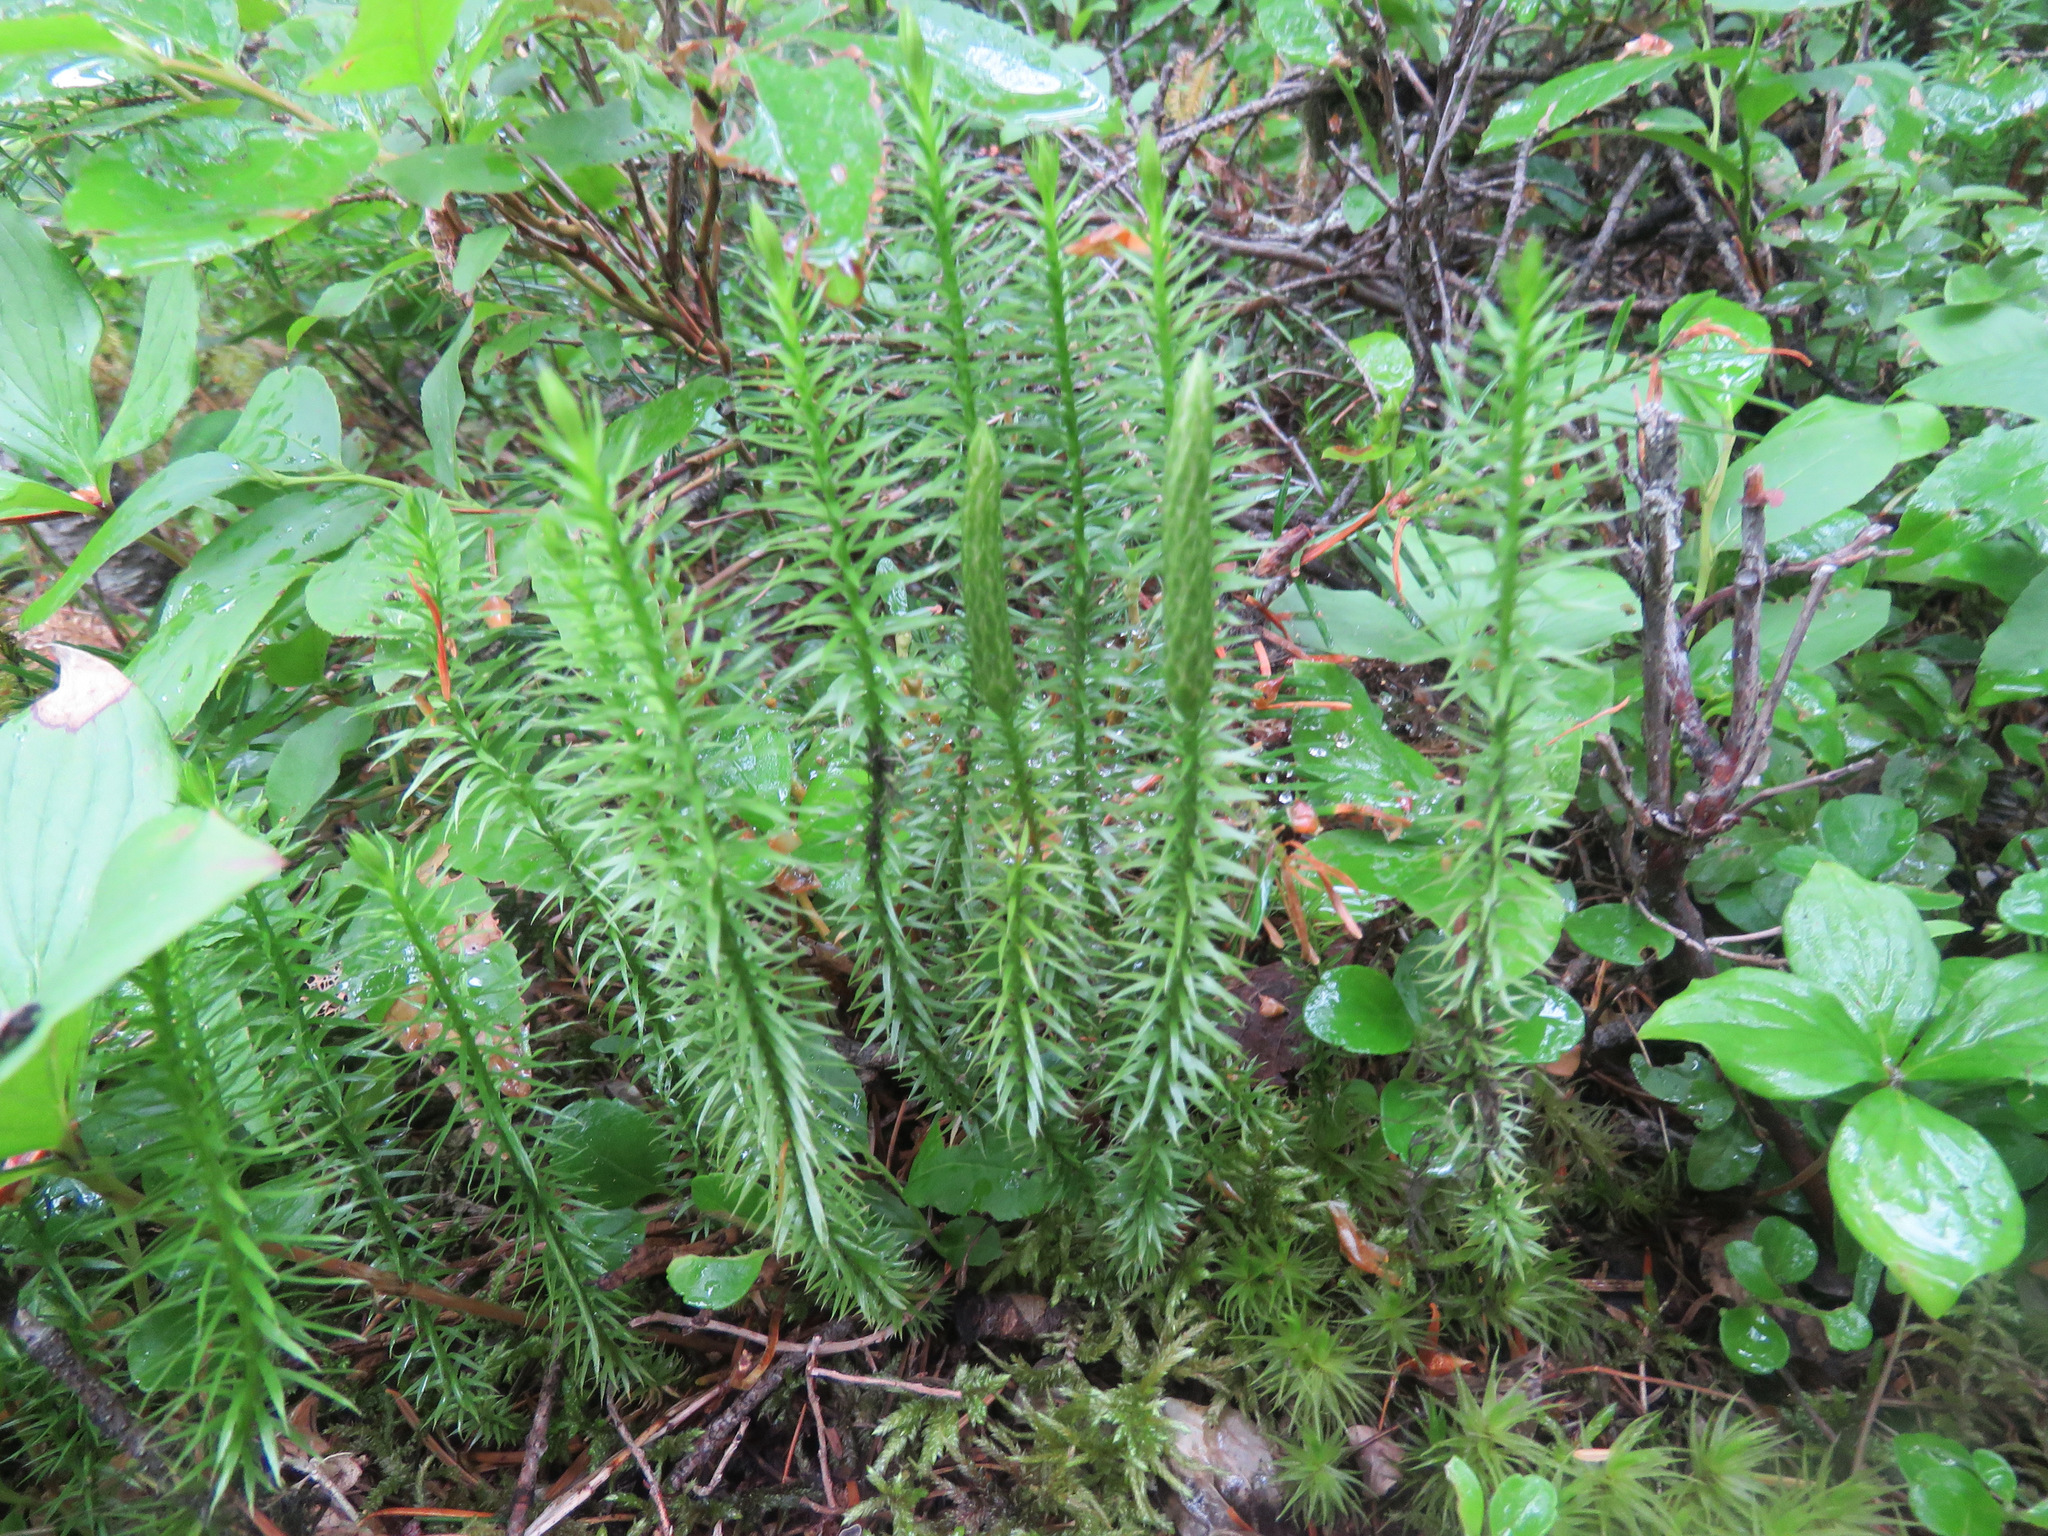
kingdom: Plantae
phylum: Tracheophyta
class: Lycopodiopsida
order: Lycopodiales
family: Lycopodiaceae
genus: Spinulum
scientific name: Spinulum annotinum
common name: Interrupted club-moss
